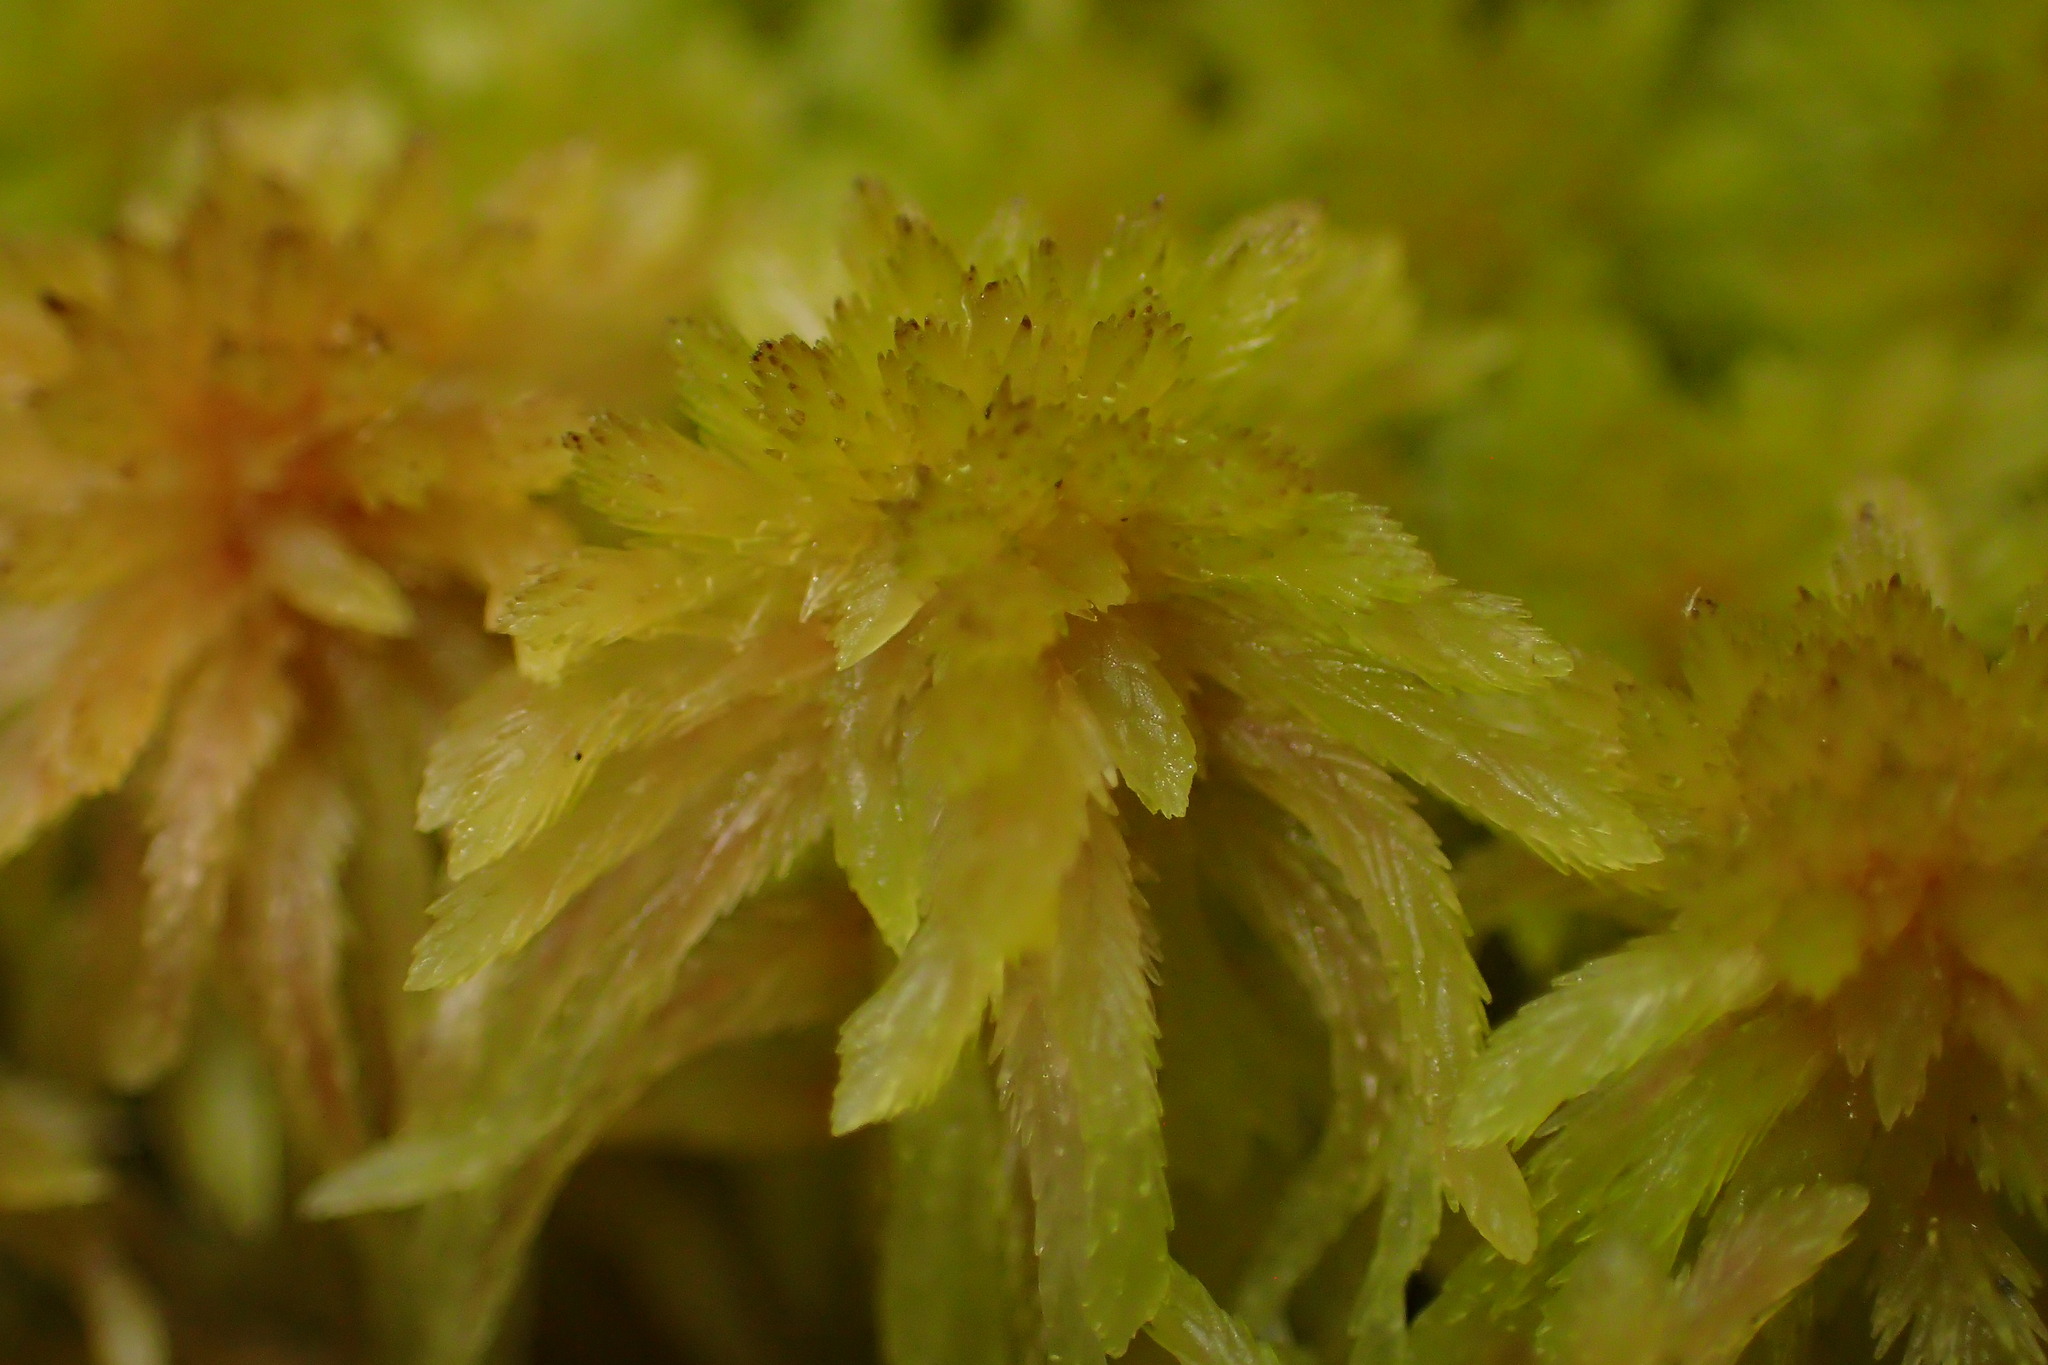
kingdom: Plantae
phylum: Bryophyta
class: Sphagnopsida
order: Sphagnales
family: Sphagnaceae
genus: Sphagnum
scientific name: Sphagnum perichaetiale
